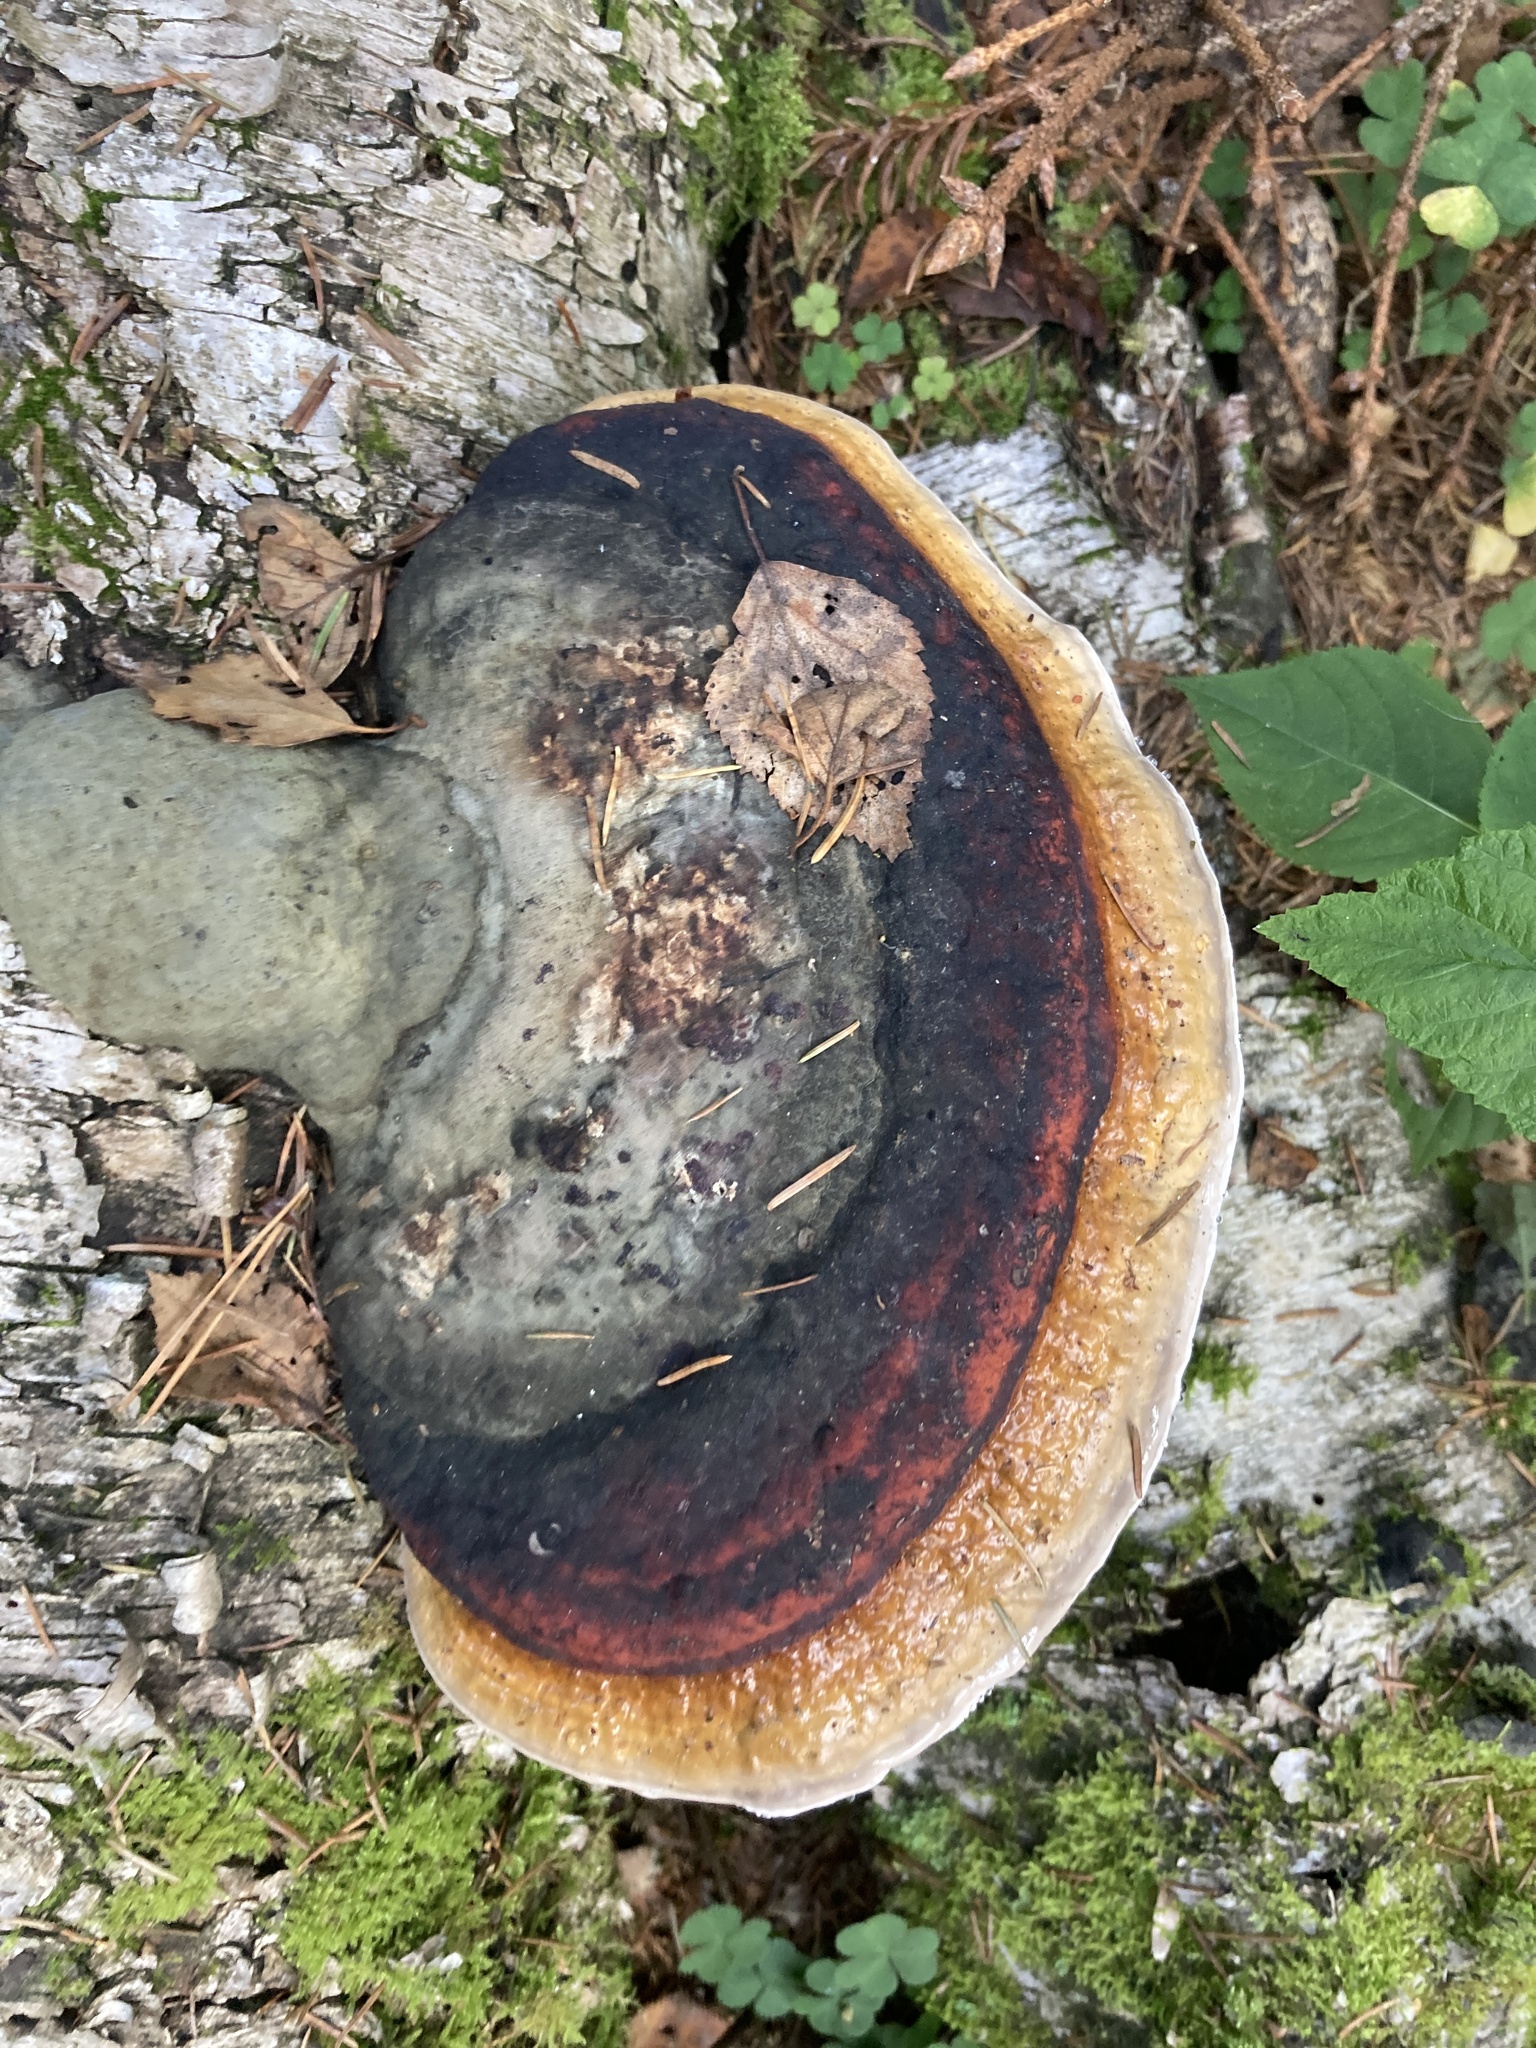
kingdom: Fungi
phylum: Basidiomycota
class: Agaricomycetes
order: Polyporales
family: Fomitopsidaceae
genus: Fomitopsis
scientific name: Fomitopsis pinicola
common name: Red-belted bracket
